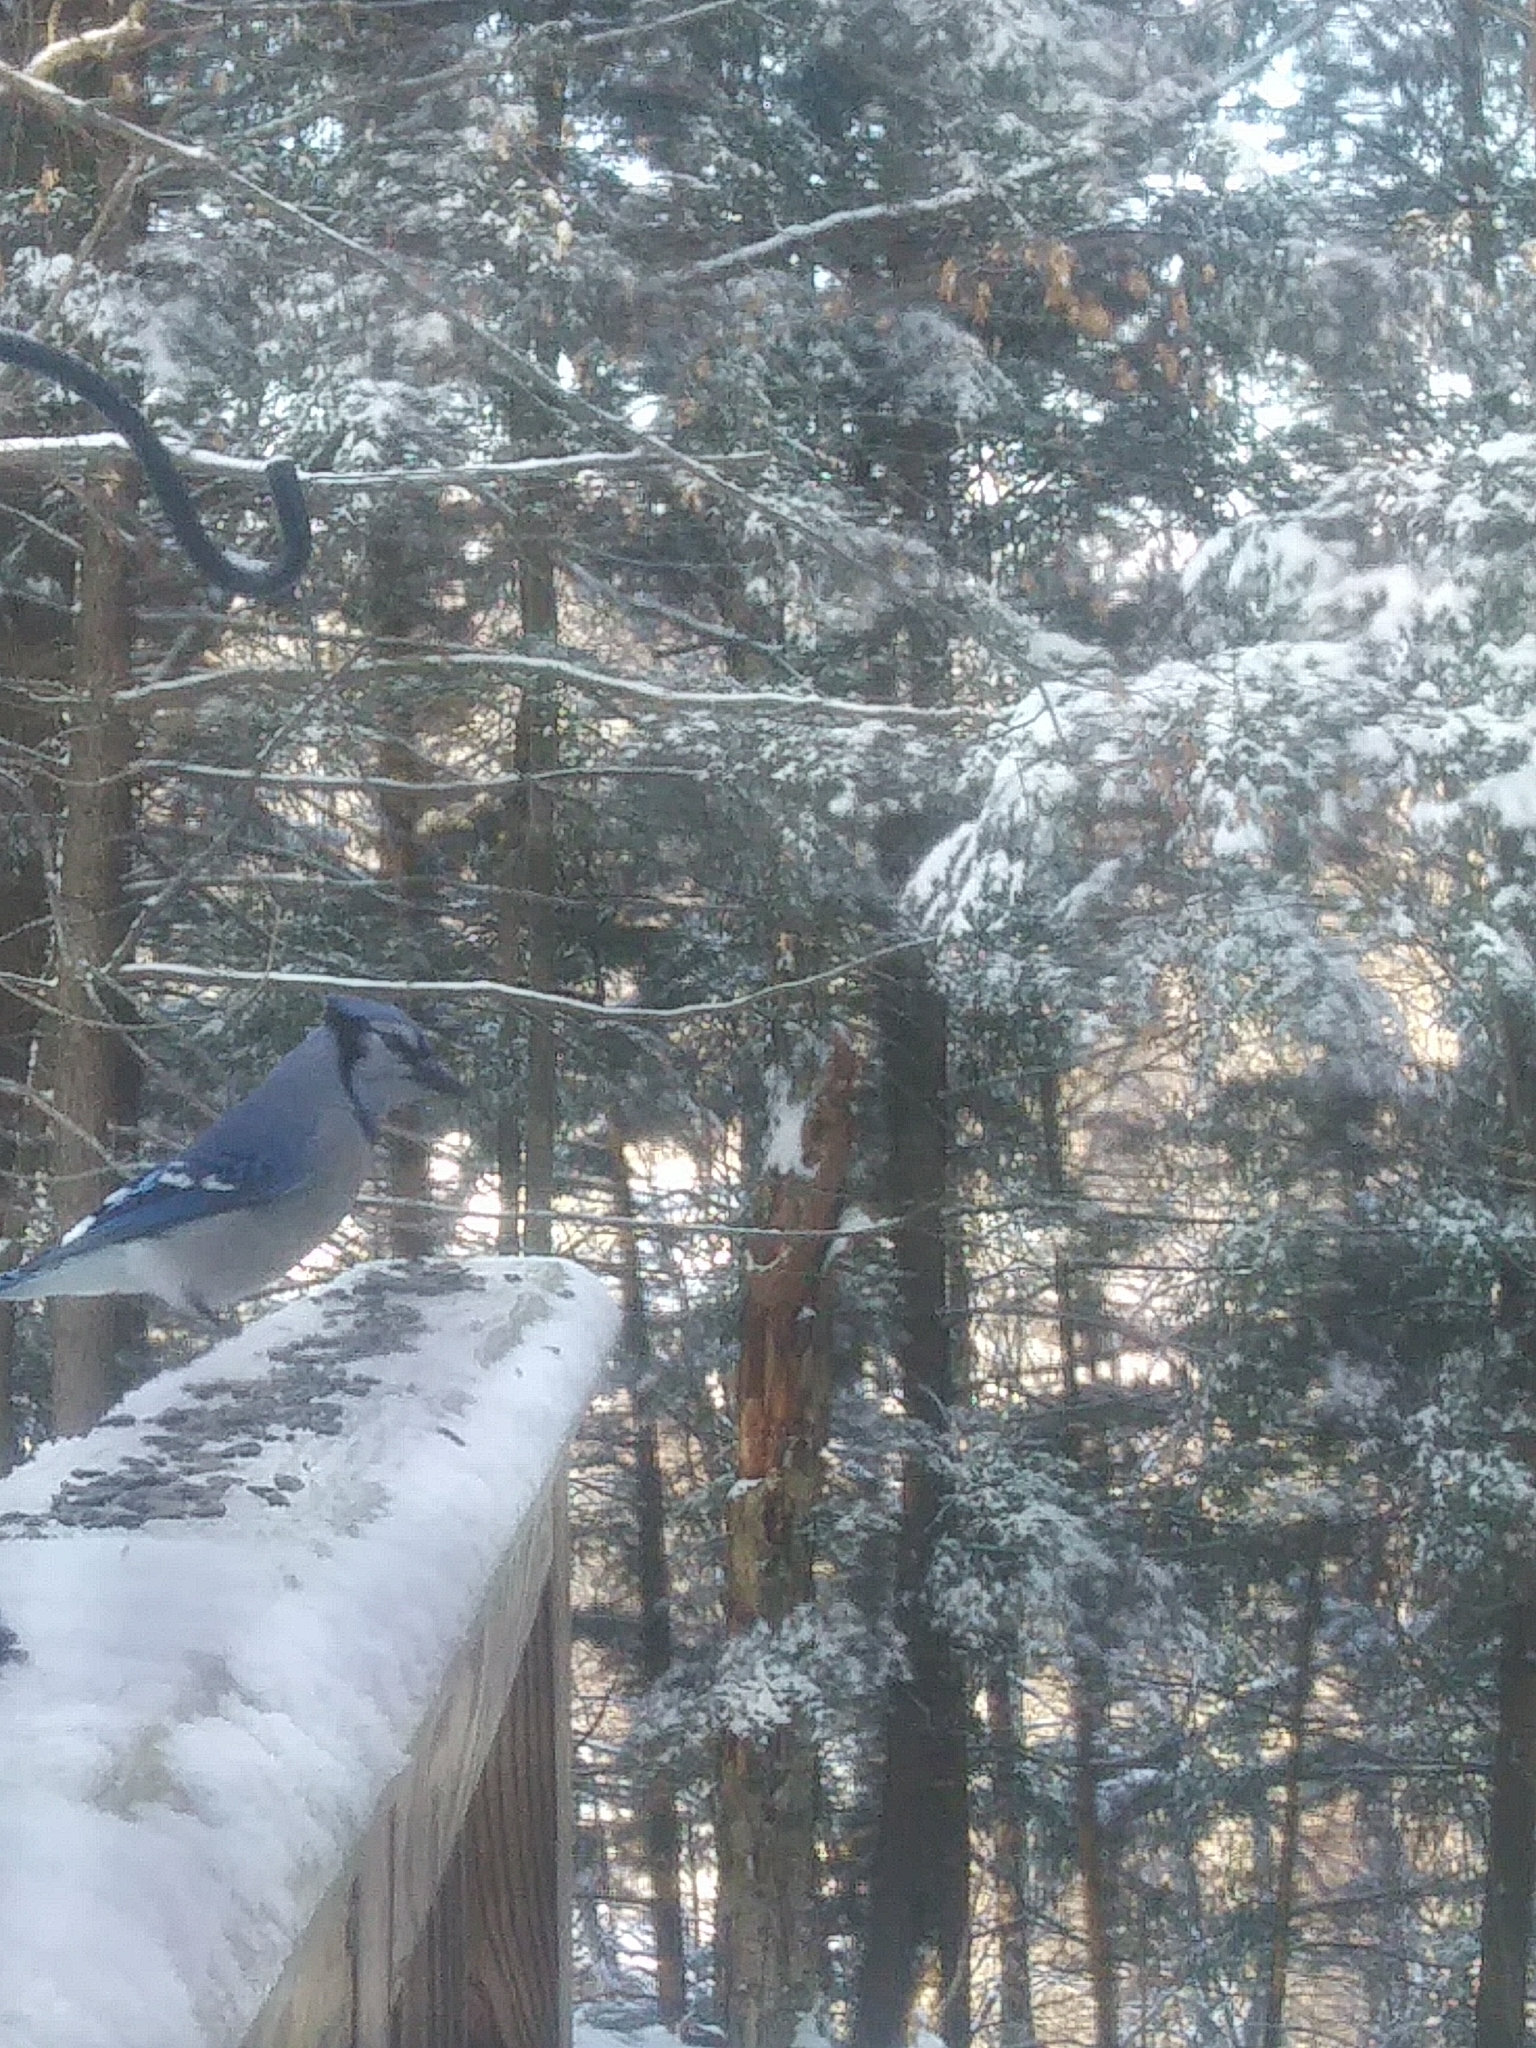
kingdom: Animalia
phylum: Chordata
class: Aves
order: Passeriformes
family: Corvidae
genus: Cyanocitta
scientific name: Cyanocitta cristata
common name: Blue jay
